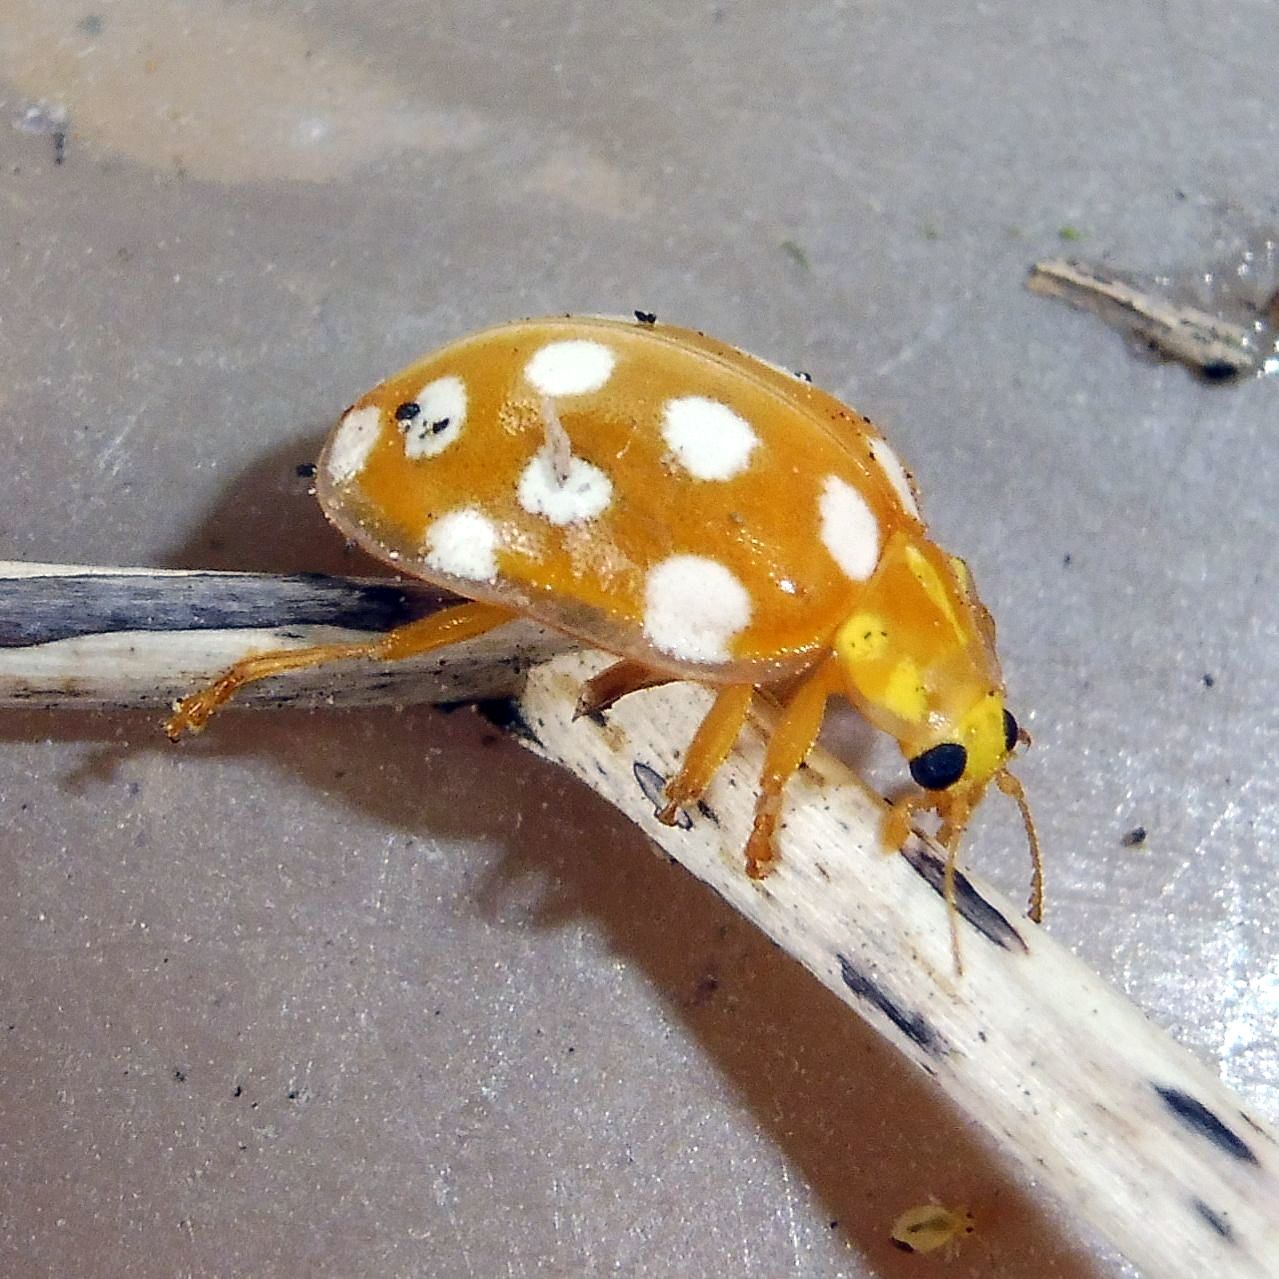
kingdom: Animalia
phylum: Arthropoda
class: Insecta
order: Coleoptera
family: Coccinellidae
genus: Halyzia
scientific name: Halyzia sedecimguttata
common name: Orange ladybird
